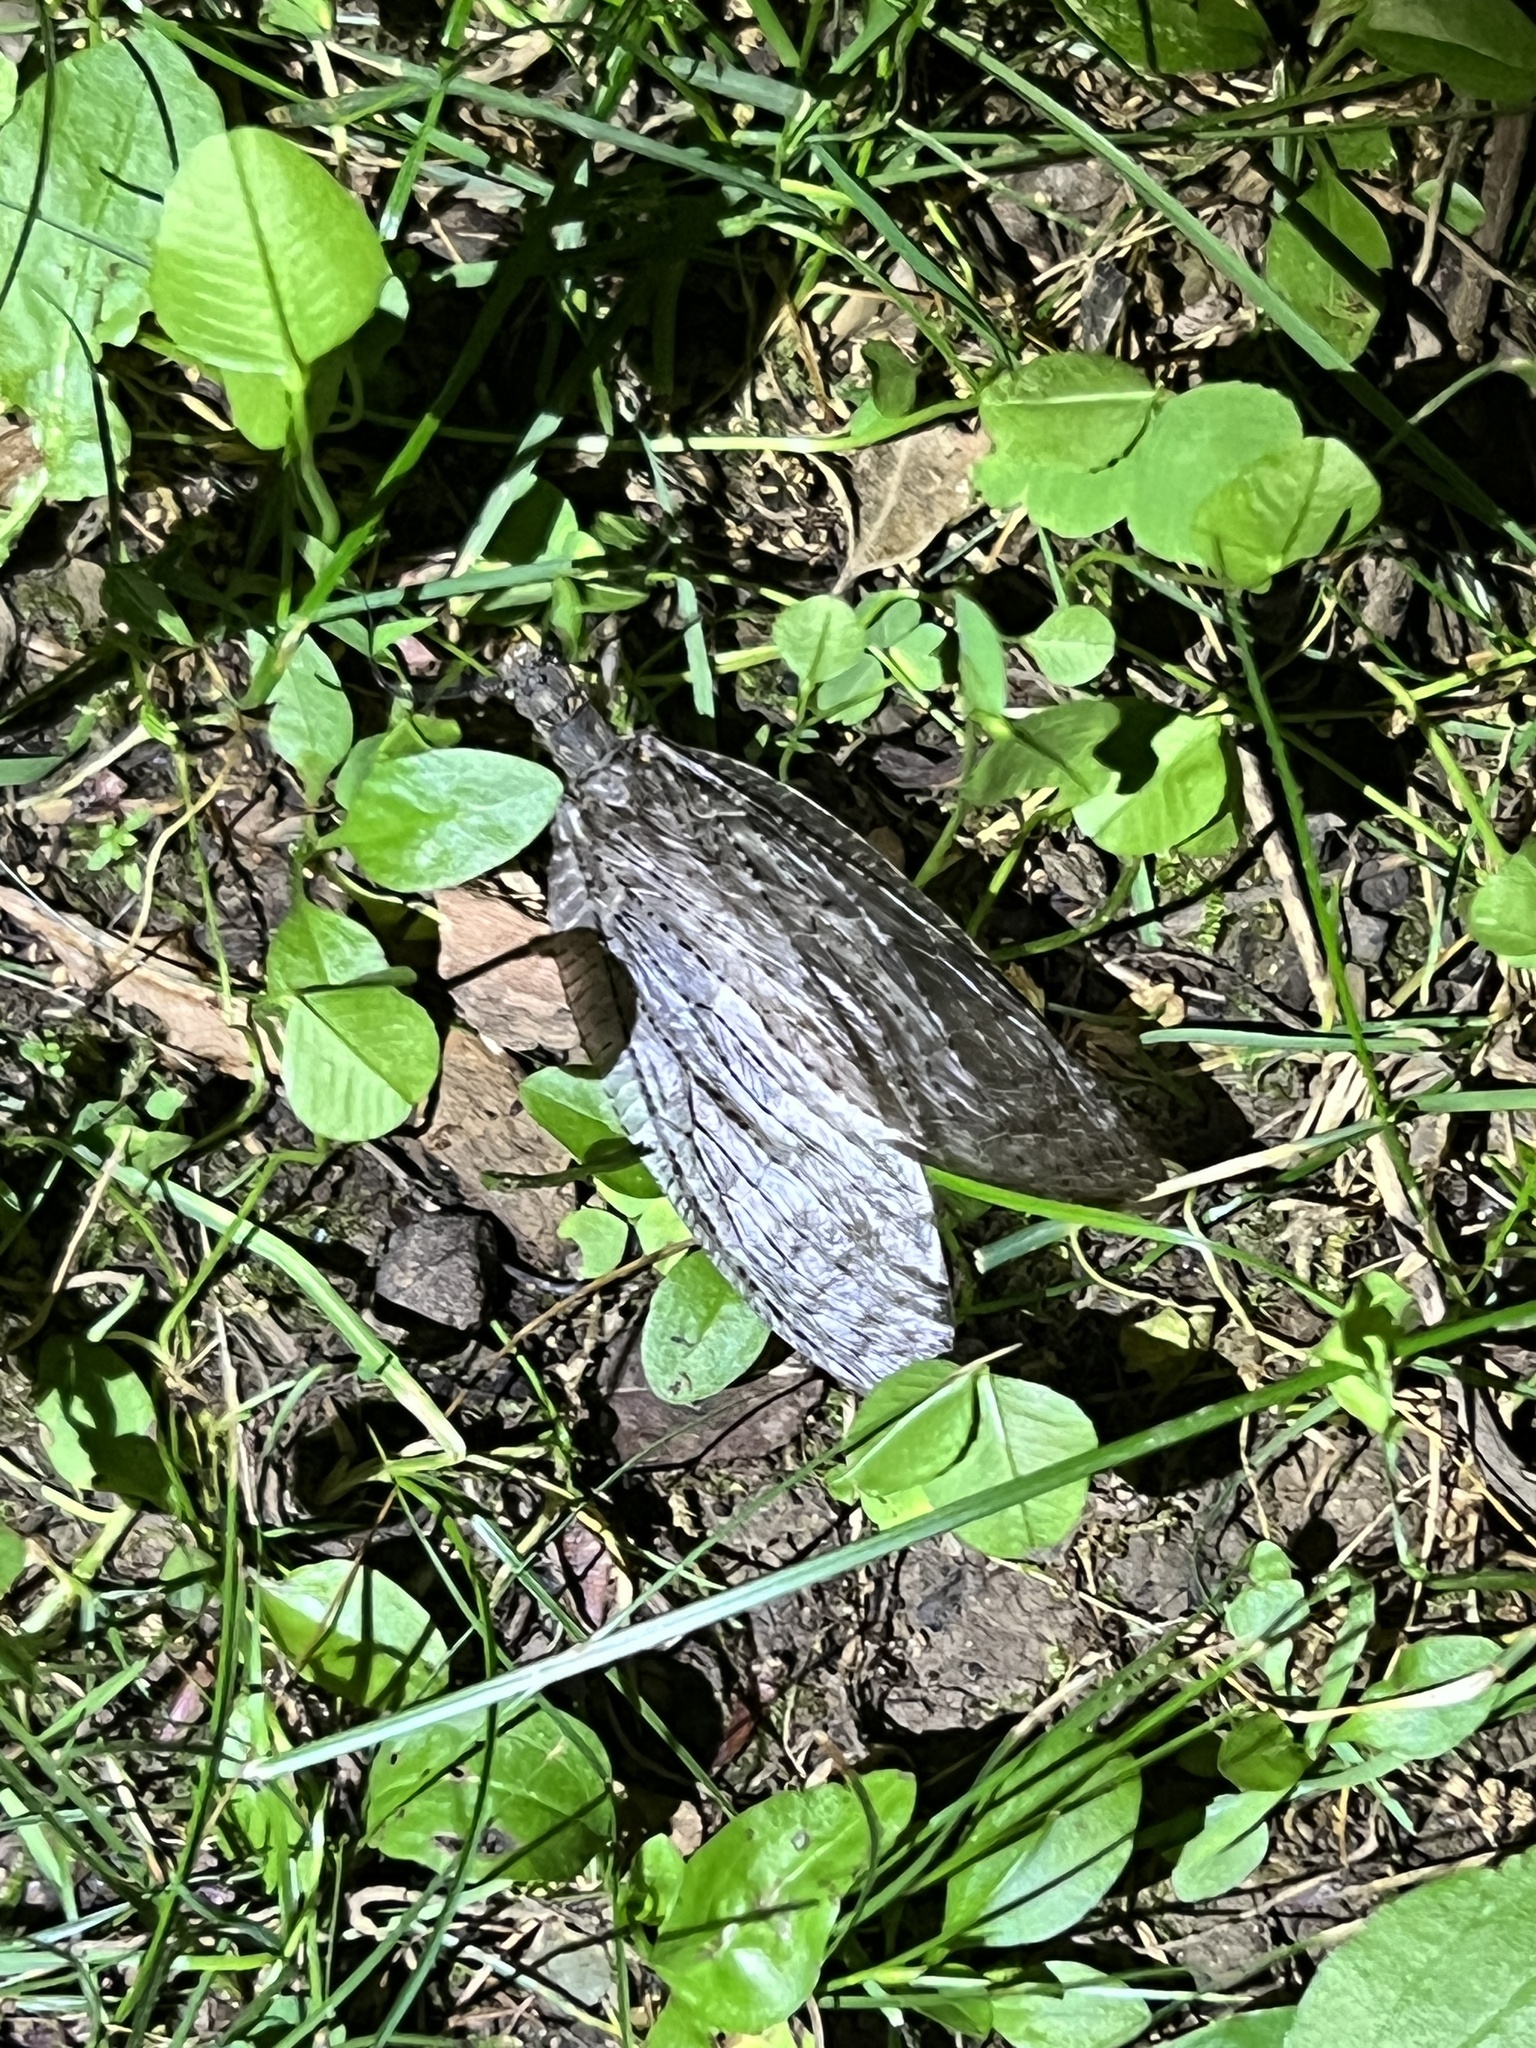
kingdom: Animalia
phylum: Arthropoda
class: Insecta
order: Megaloptera
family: Corydalidae
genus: Chauliodes
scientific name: Chauliodes pectinicornis
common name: Summer fishfly
